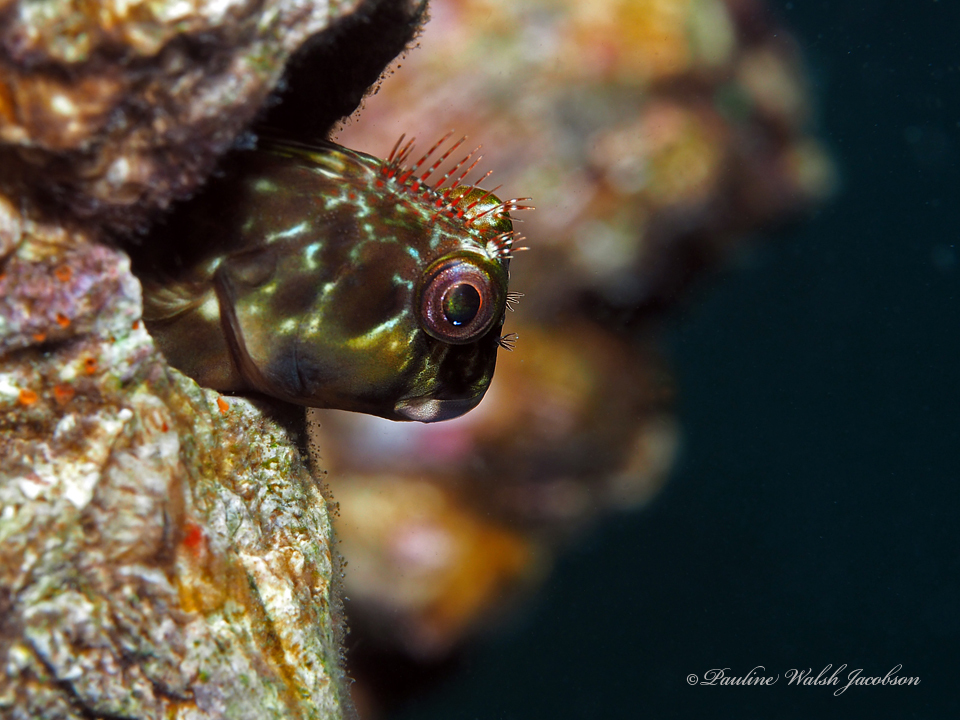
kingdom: Animalia
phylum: Chordata
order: Perciformes
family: Blenniidae
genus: Scartella
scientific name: Scartella cristata
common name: Molly miller
